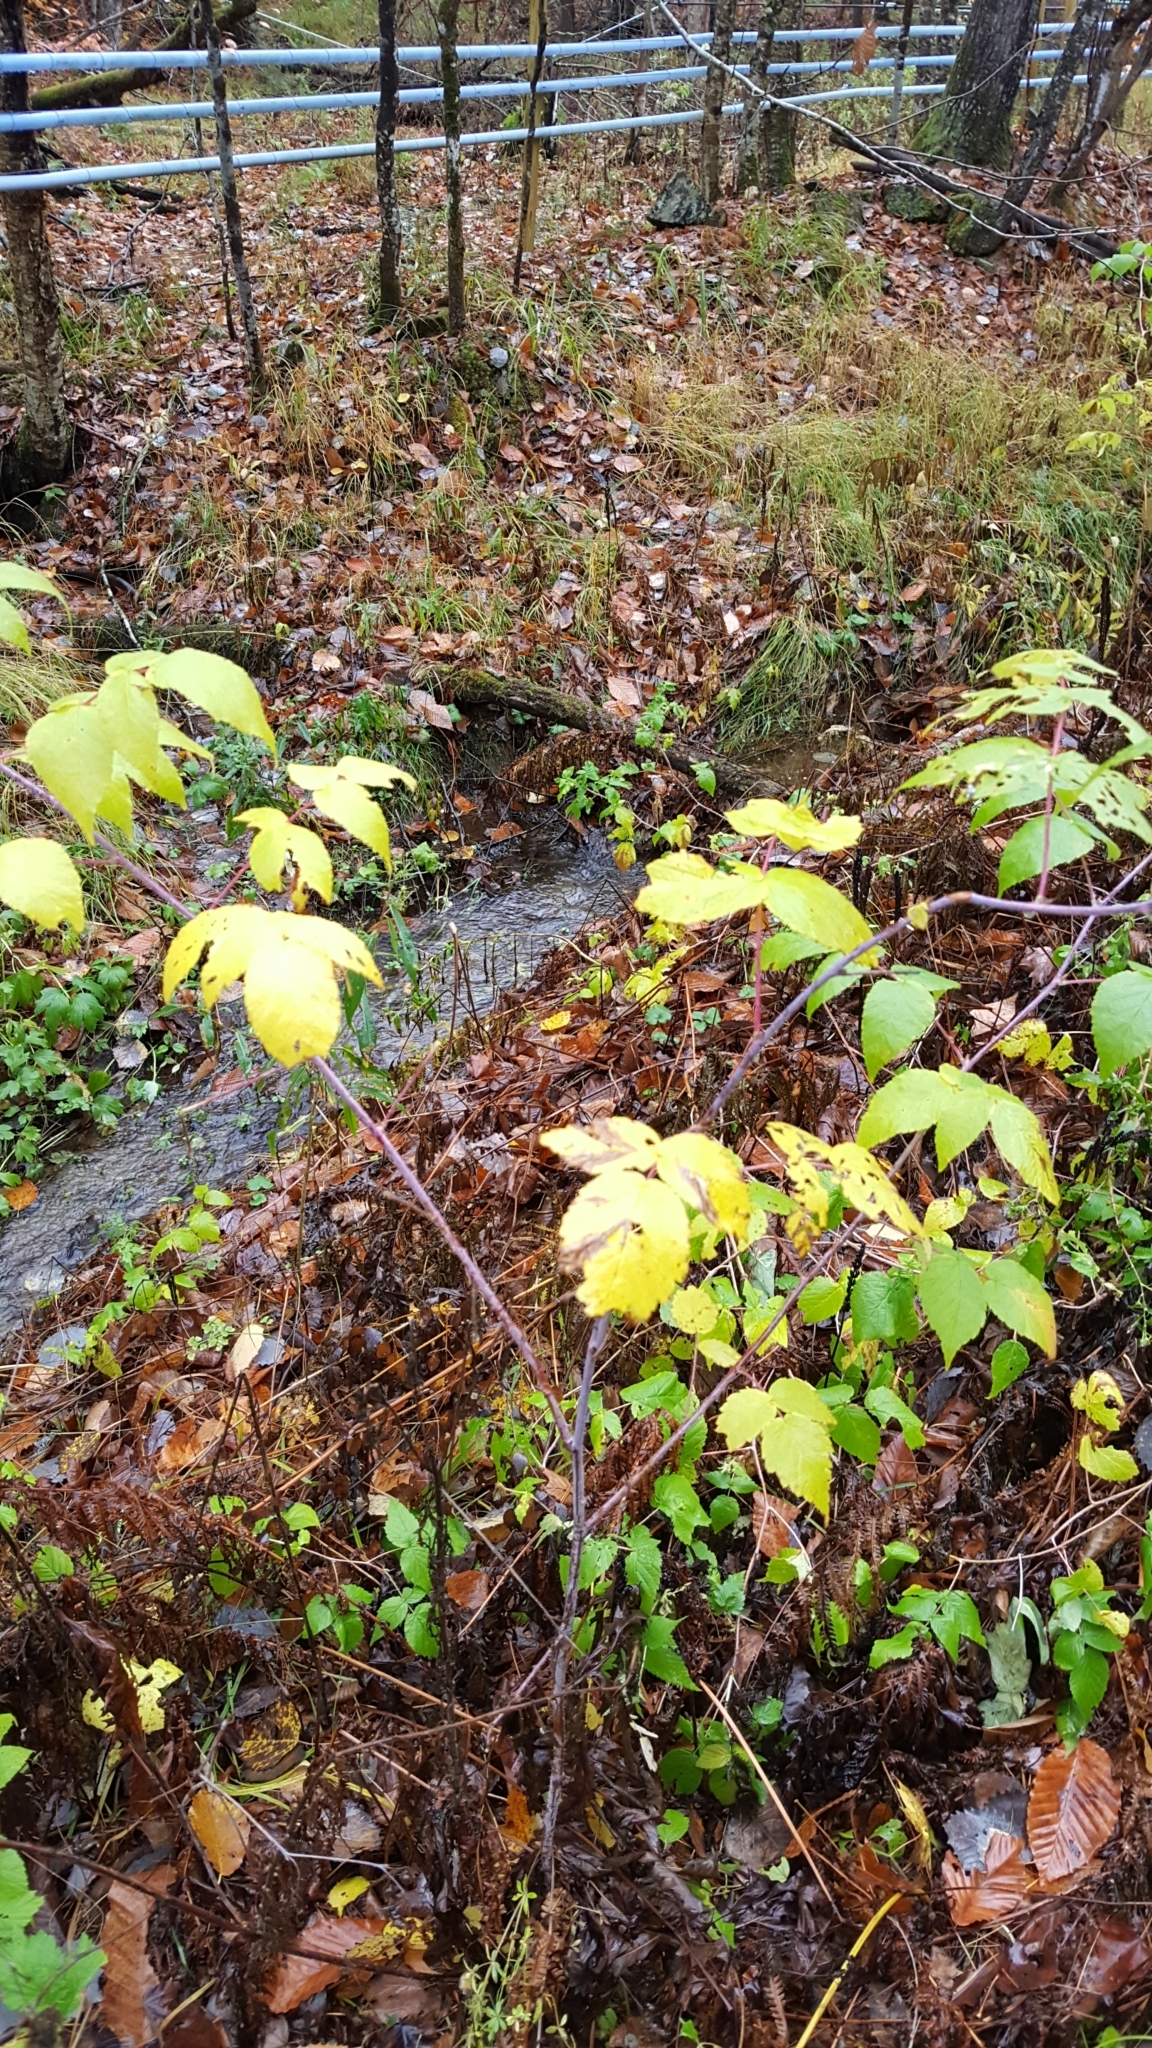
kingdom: Plantae
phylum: Tracheophyta
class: Magnoliopsida
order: Rosales
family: Rosaceae
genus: Rubus
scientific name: Rubus occidentalis
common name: Black raspberry
